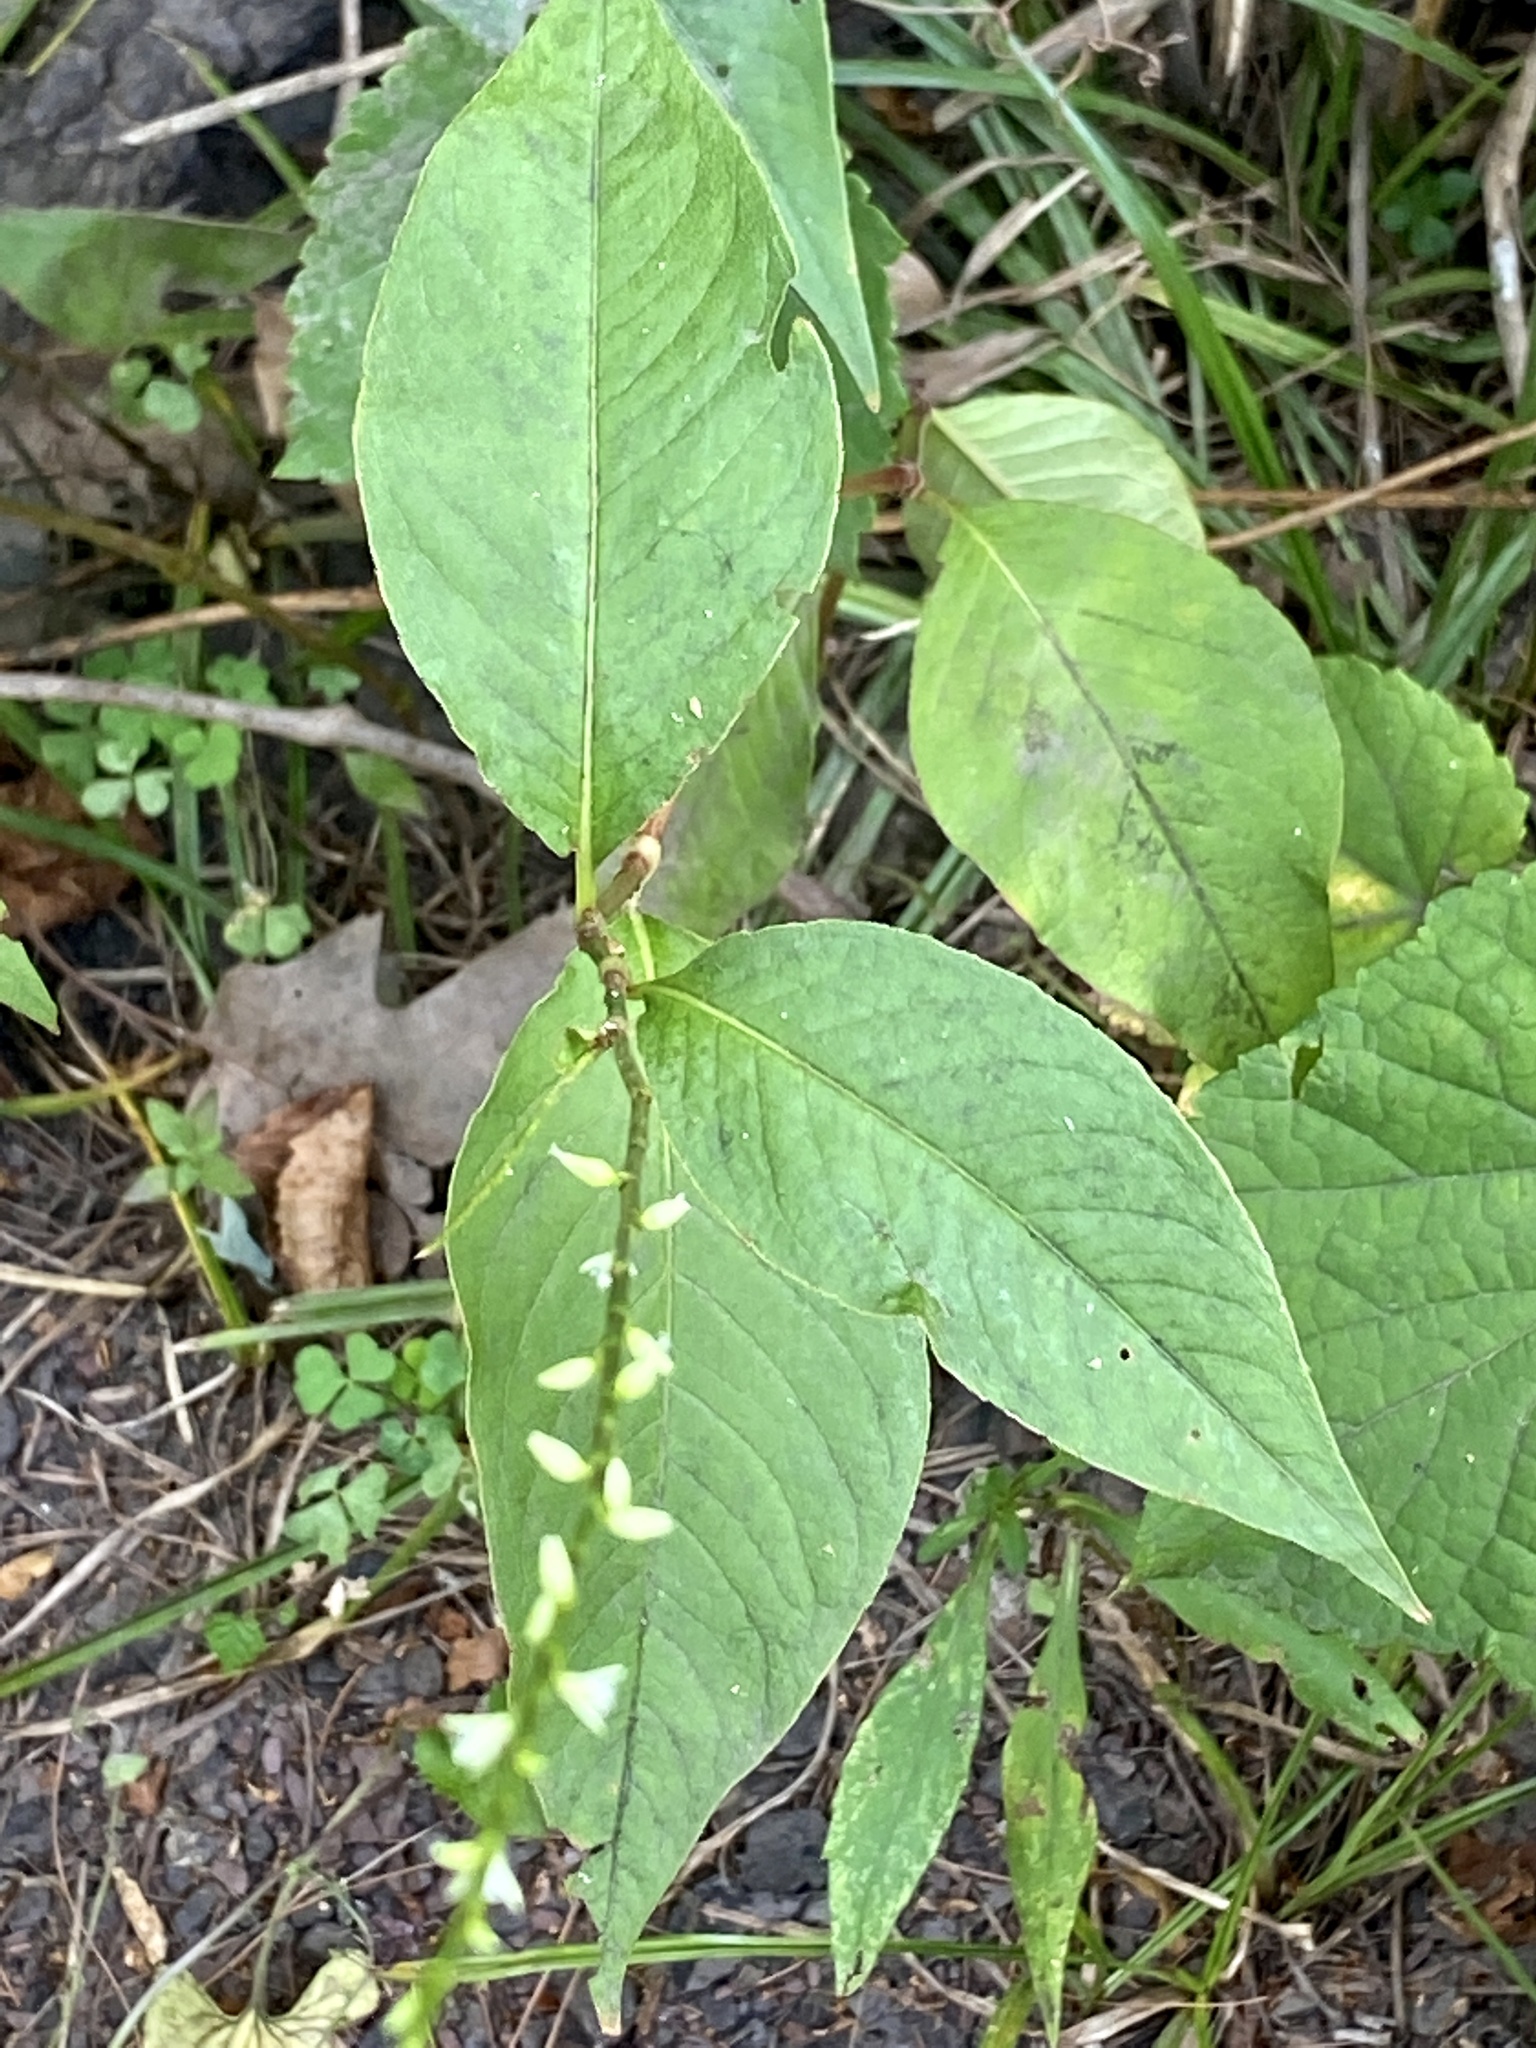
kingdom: Plantae
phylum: Tracheophyta
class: Magnoliopsida
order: Caryophyllales
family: Polygonaceae
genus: Persicaria
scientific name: Persicaria virginiana
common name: Jumpseed
